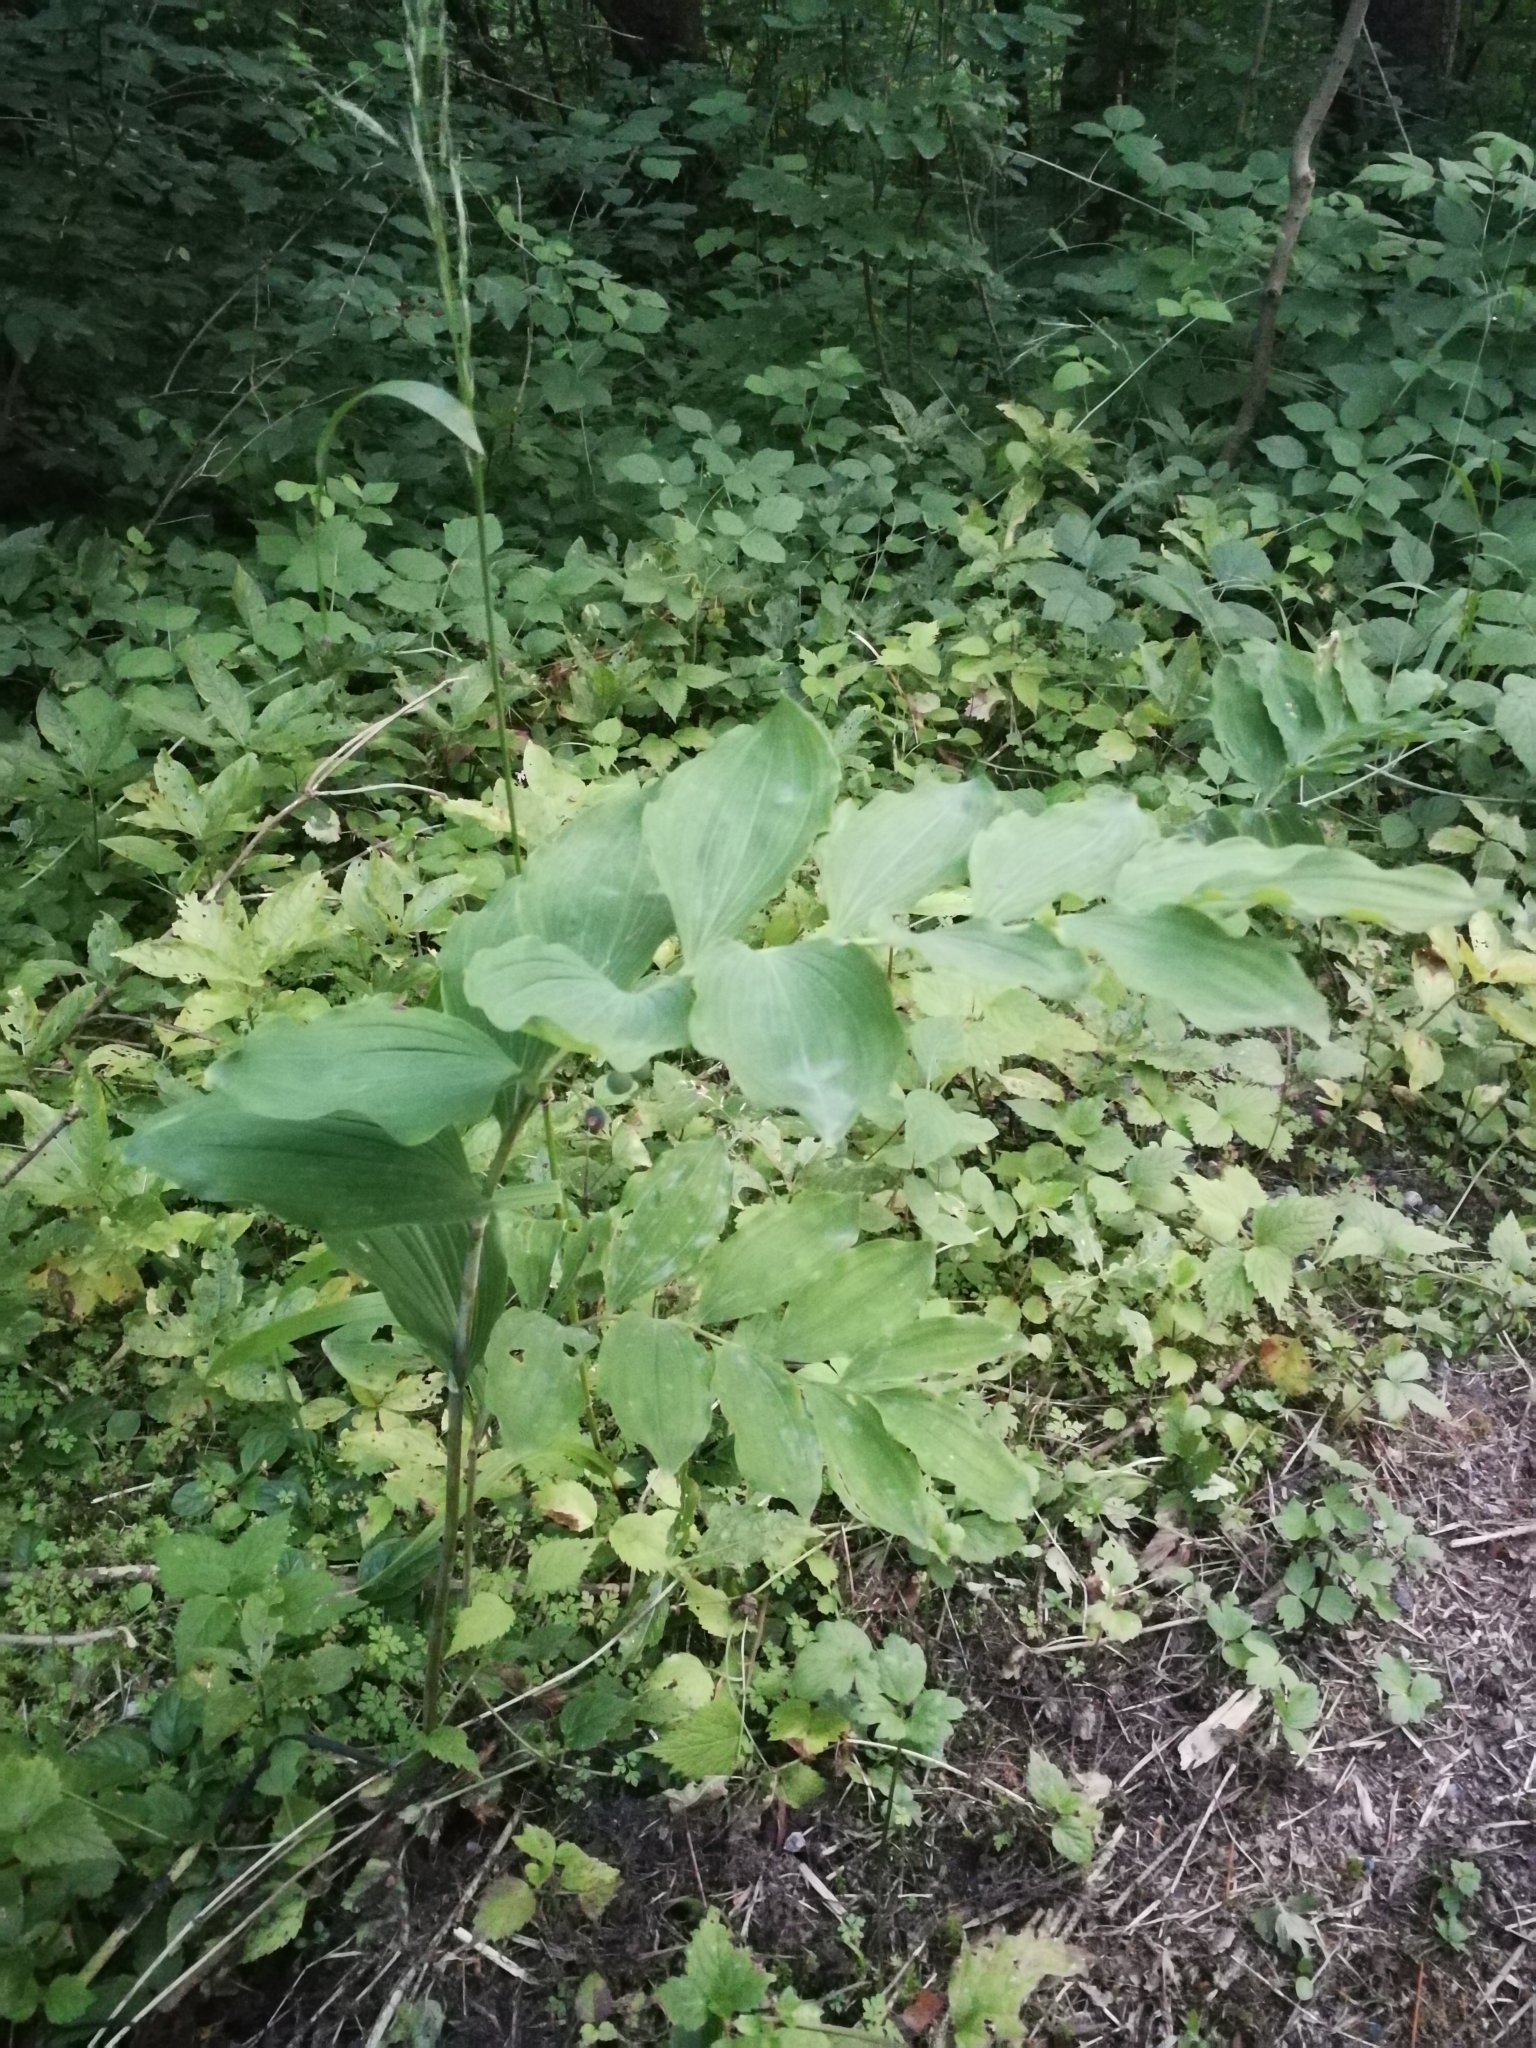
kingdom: Plantae
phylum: Tracheophyta
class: Liliopsida
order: Asparagales
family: Asparagaceae
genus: Polygonatum
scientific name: Polygonatum multiflorum
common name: Solomon's-seal
